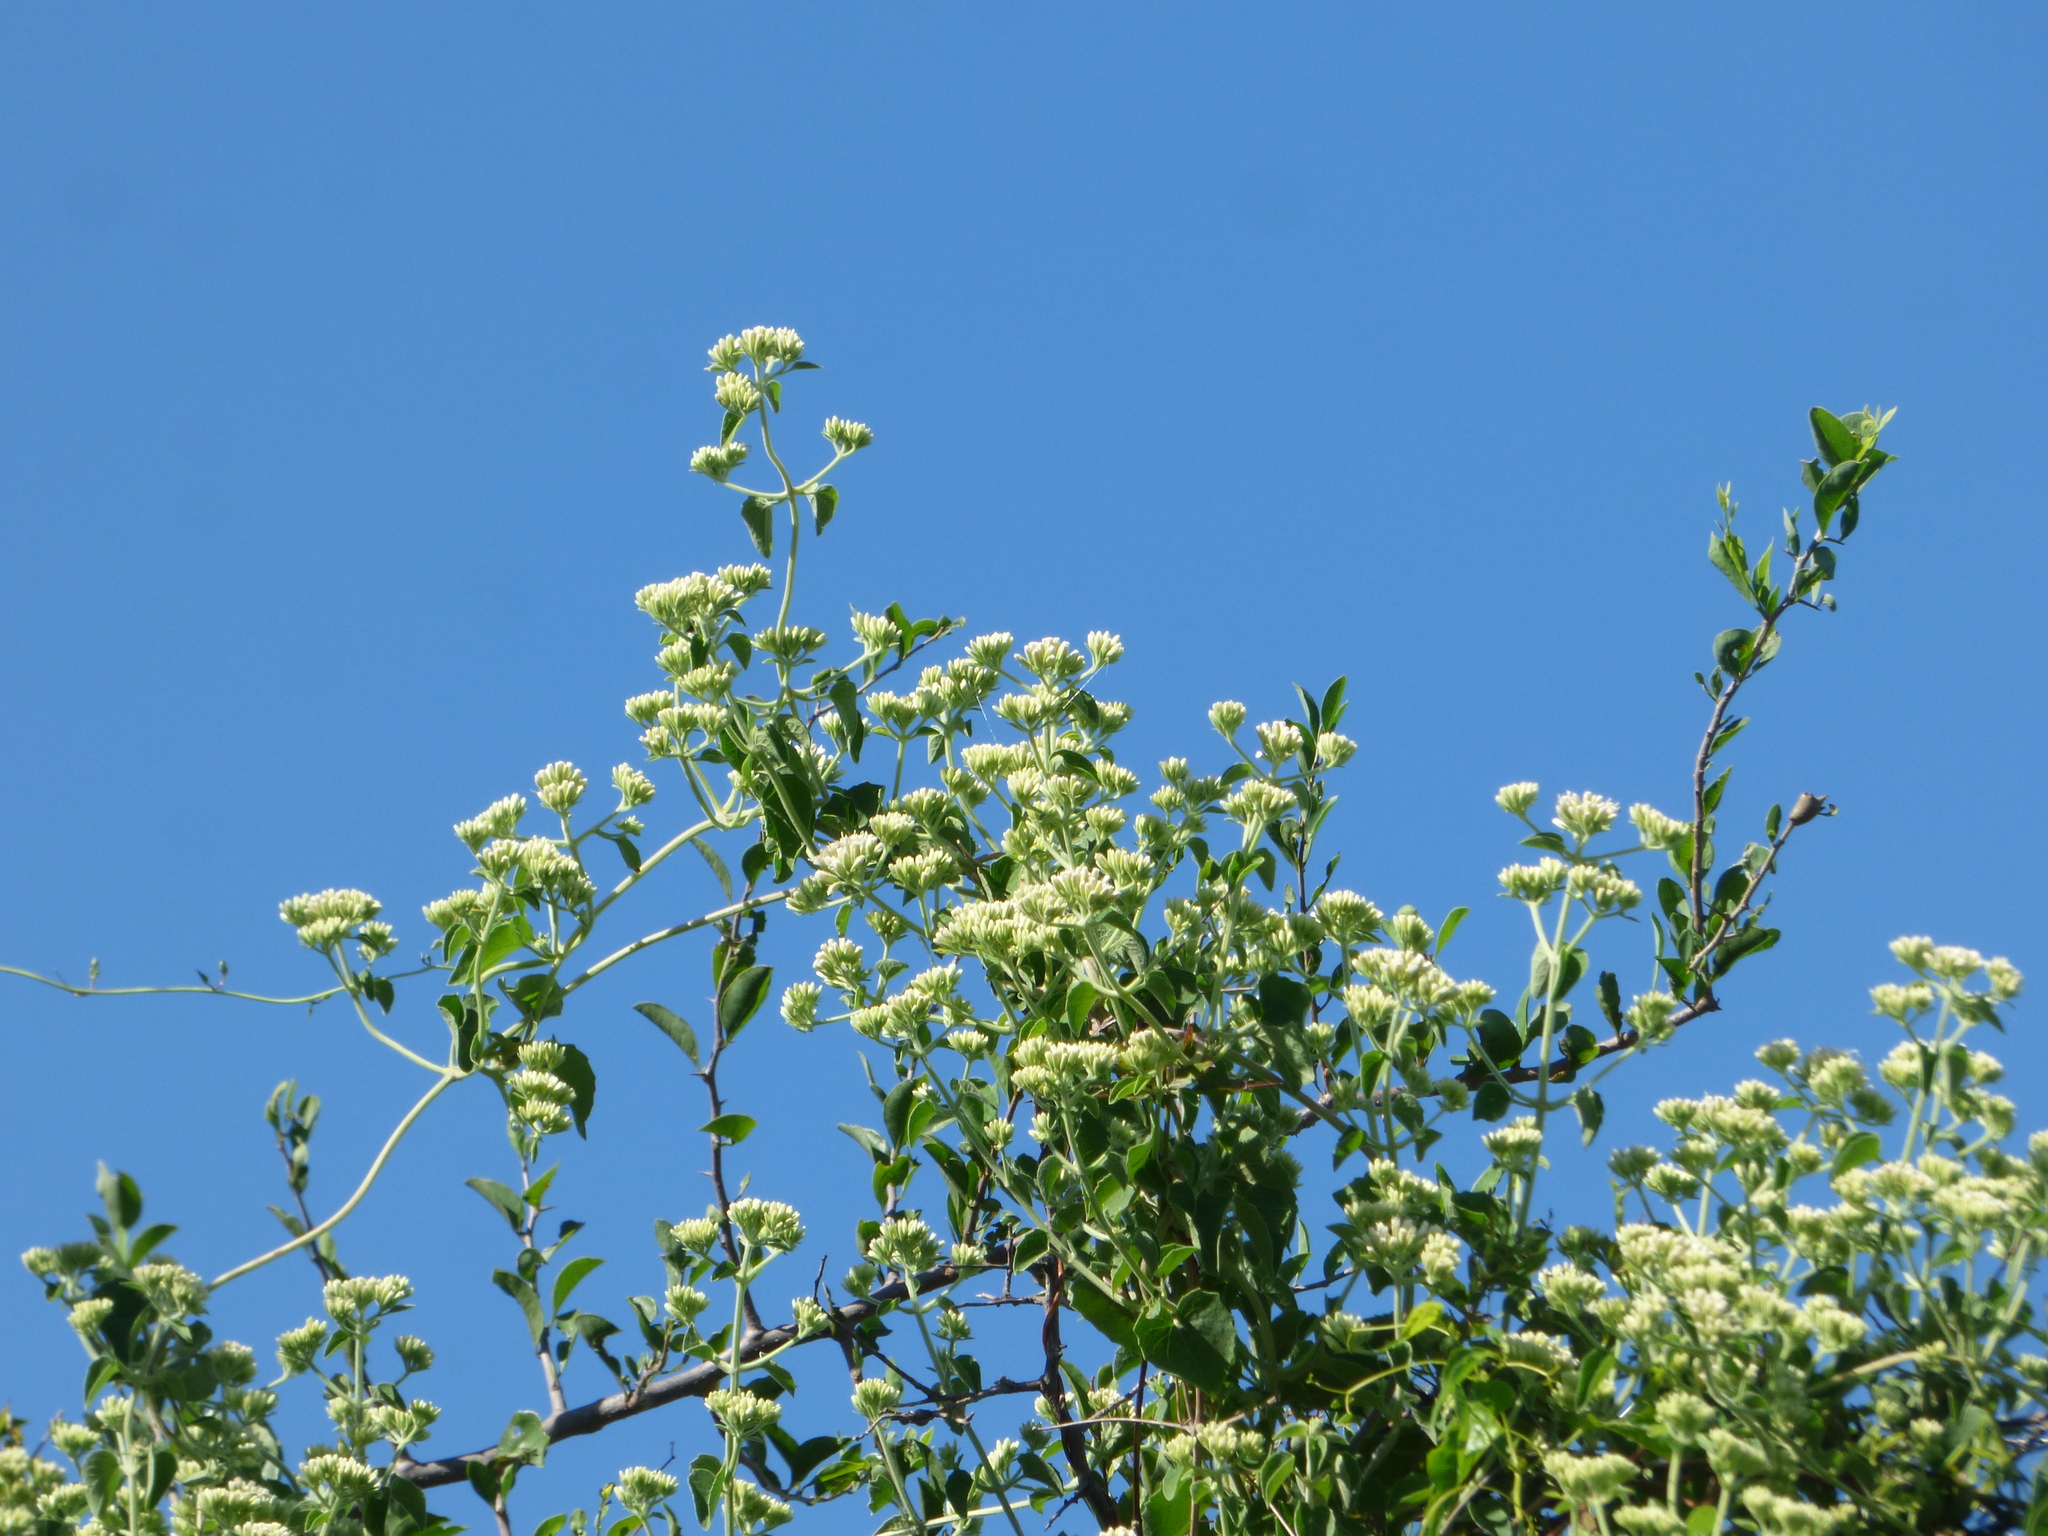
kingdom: Plantae
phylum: Tracheophyta
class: Magnoliopsida
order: Asterales
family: Asteraceae
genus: Mikania
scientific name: Mikania cordifolia
